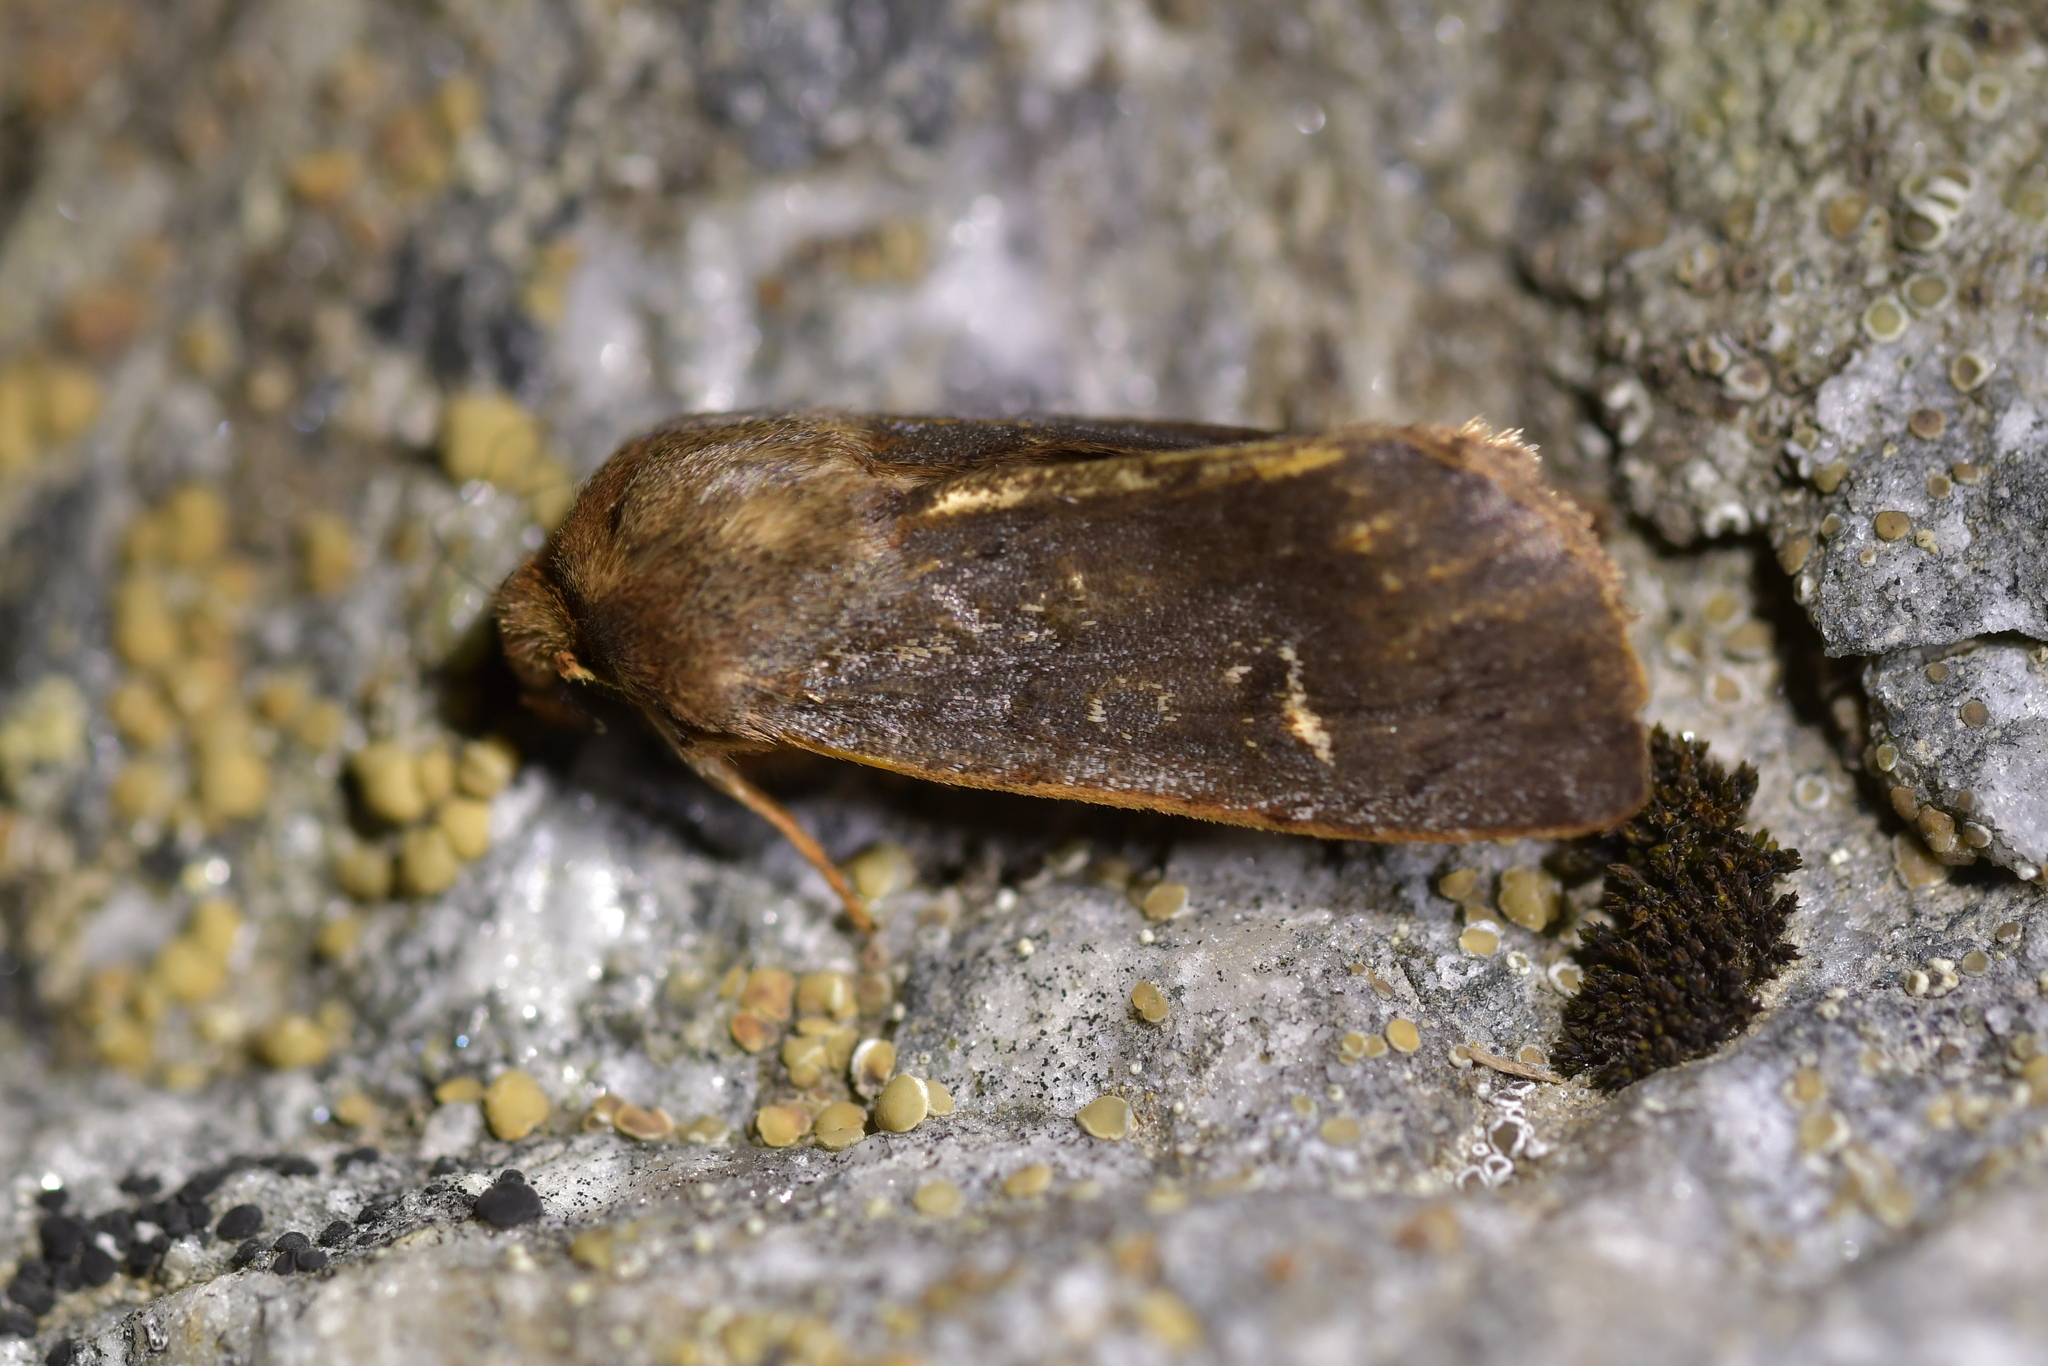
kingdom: Animalia
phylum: Arthropoda
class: Insecta
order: Lepidoptera
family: Noctuidae
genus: Ichneutica
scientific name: Ichneutica
